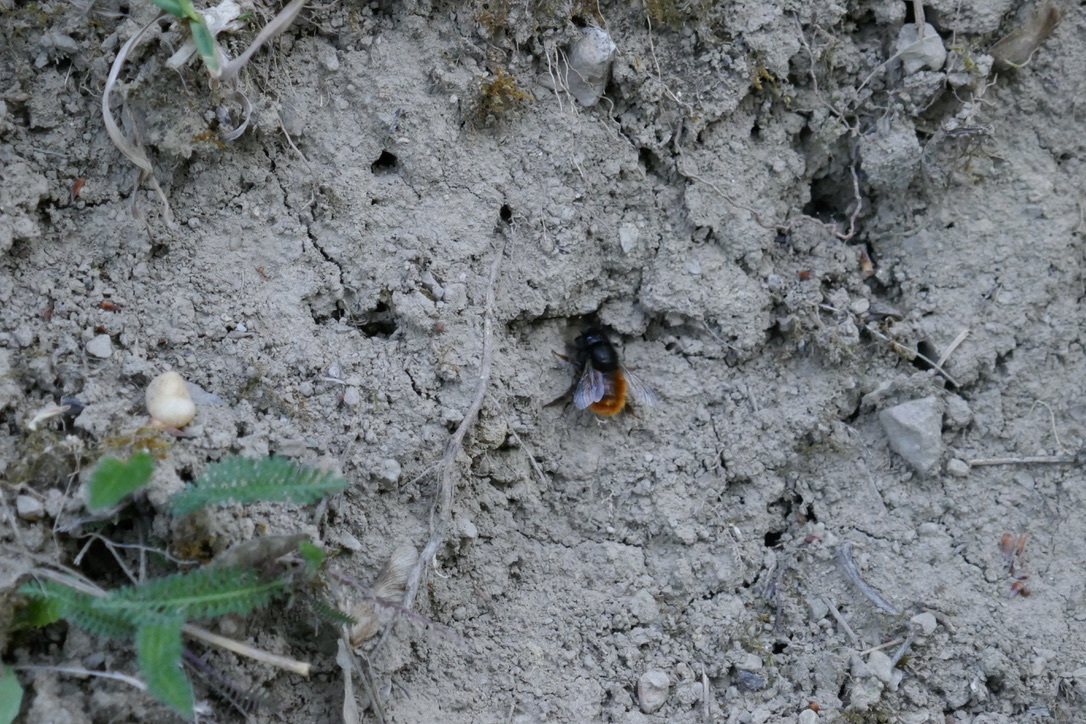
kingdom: Animalia
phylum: Arthropoda
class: Insecta
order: Hymenoptera
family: Megachilidae
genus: Osmia
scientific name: Osmia cornuta
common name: Mason bee
